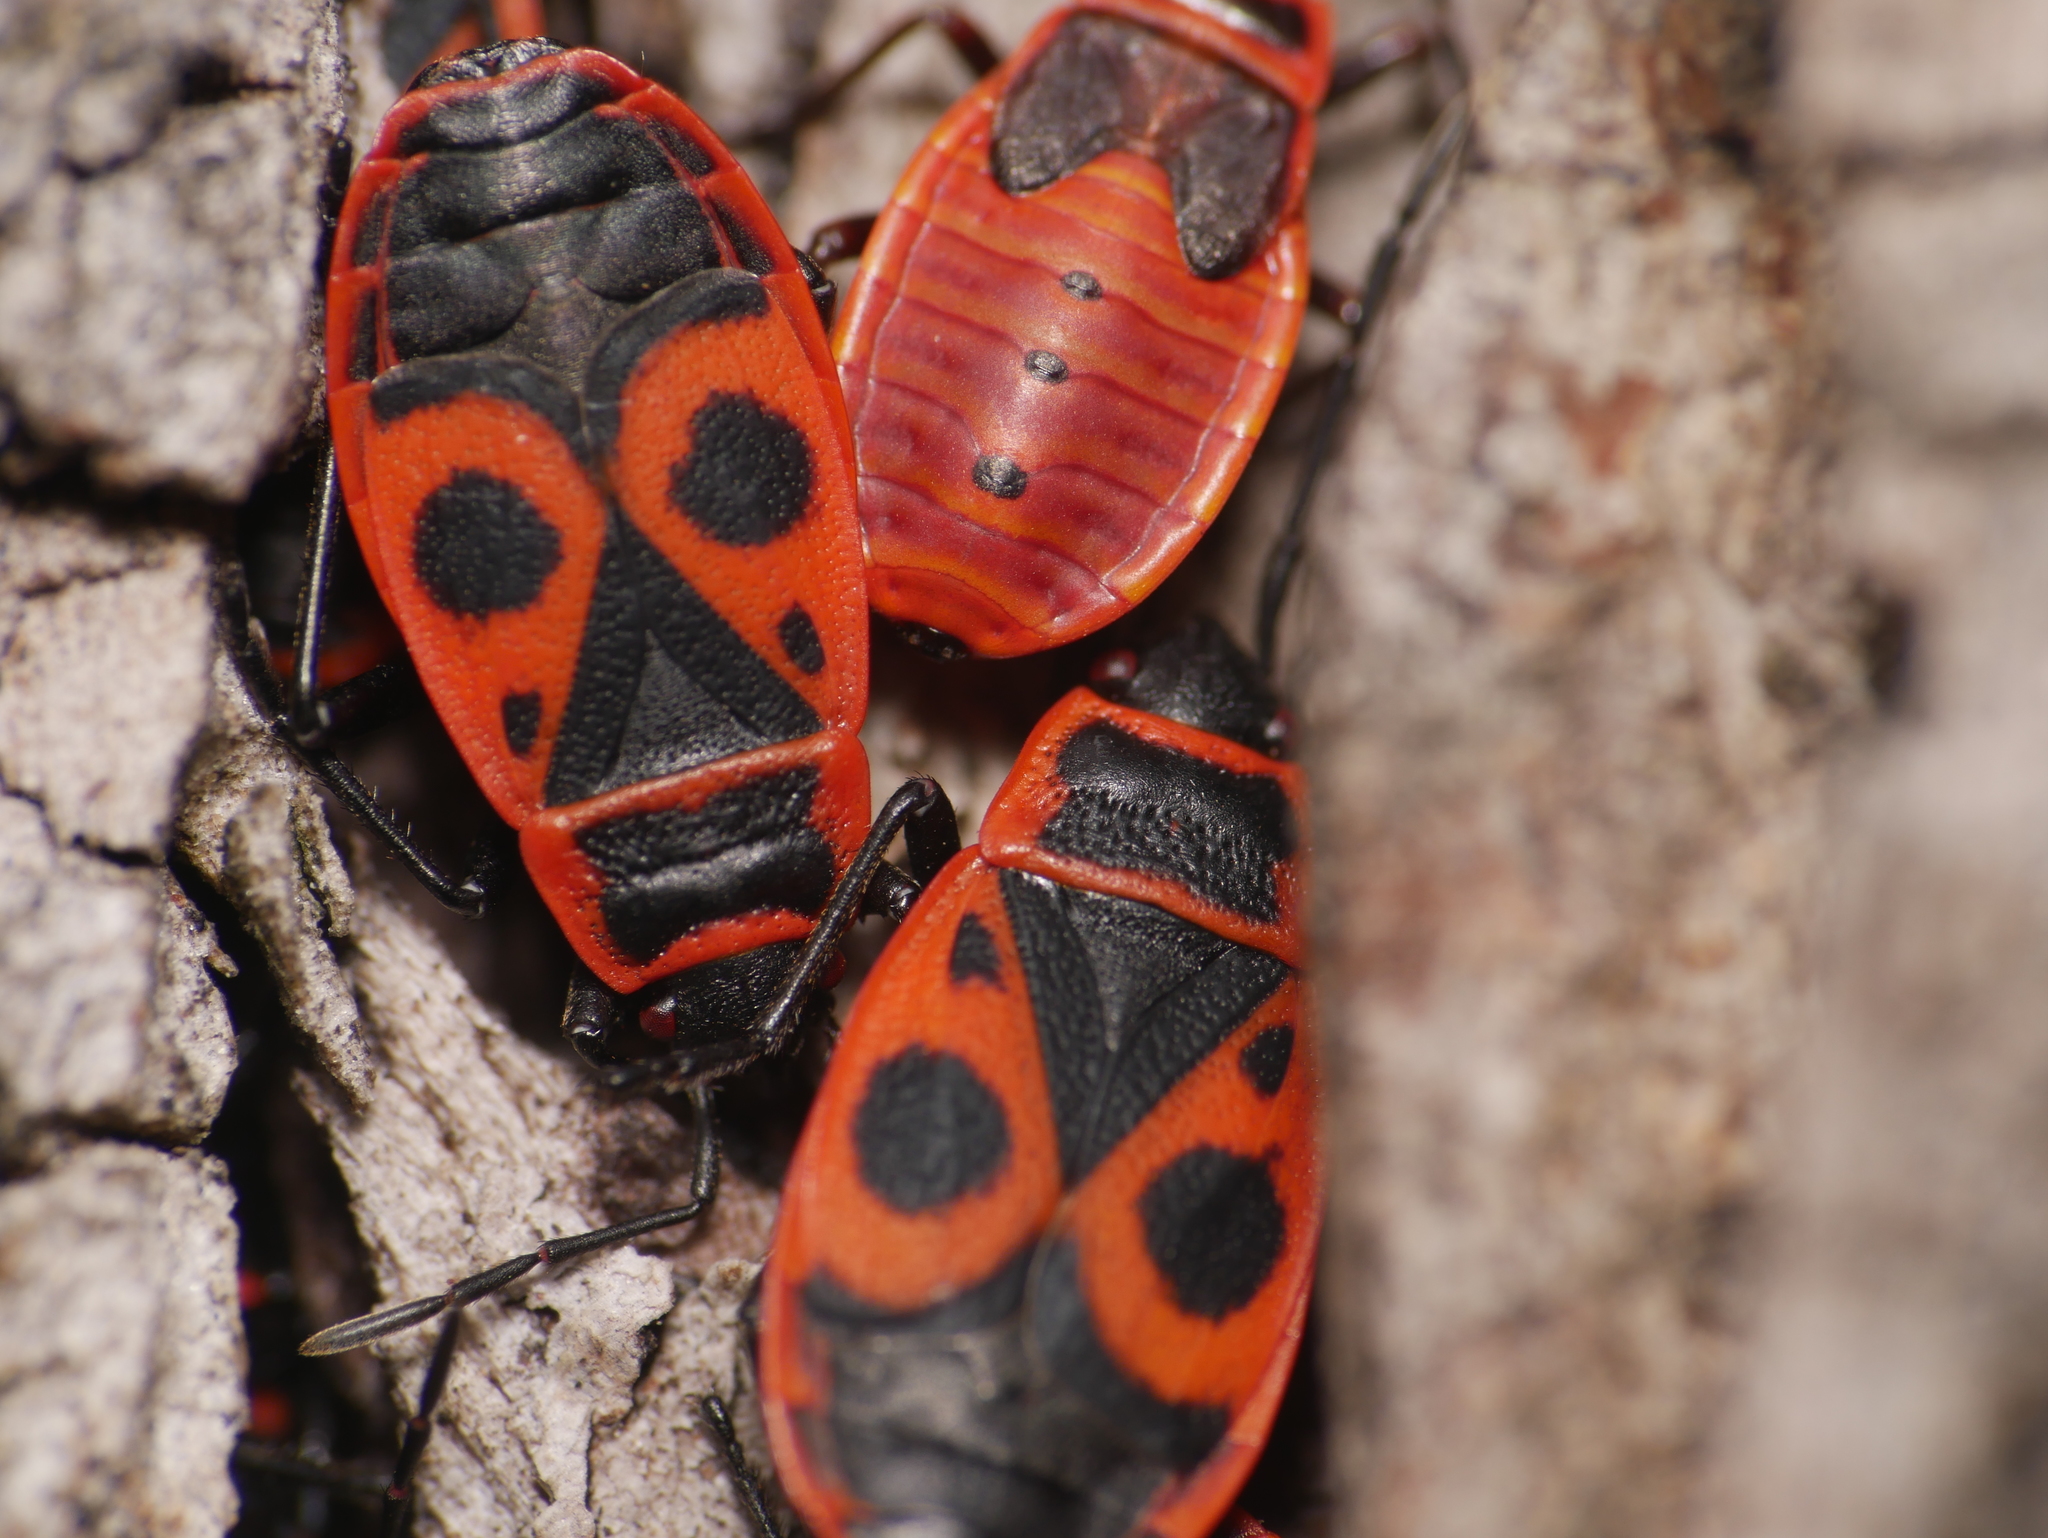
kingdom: Animalia
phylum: Arthropoda
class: Insecta
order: Hemiptera
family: Pyrrhocoridae
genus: Pyrrhocoris
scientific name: Pyrrhocoris apterus
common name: Firebug
